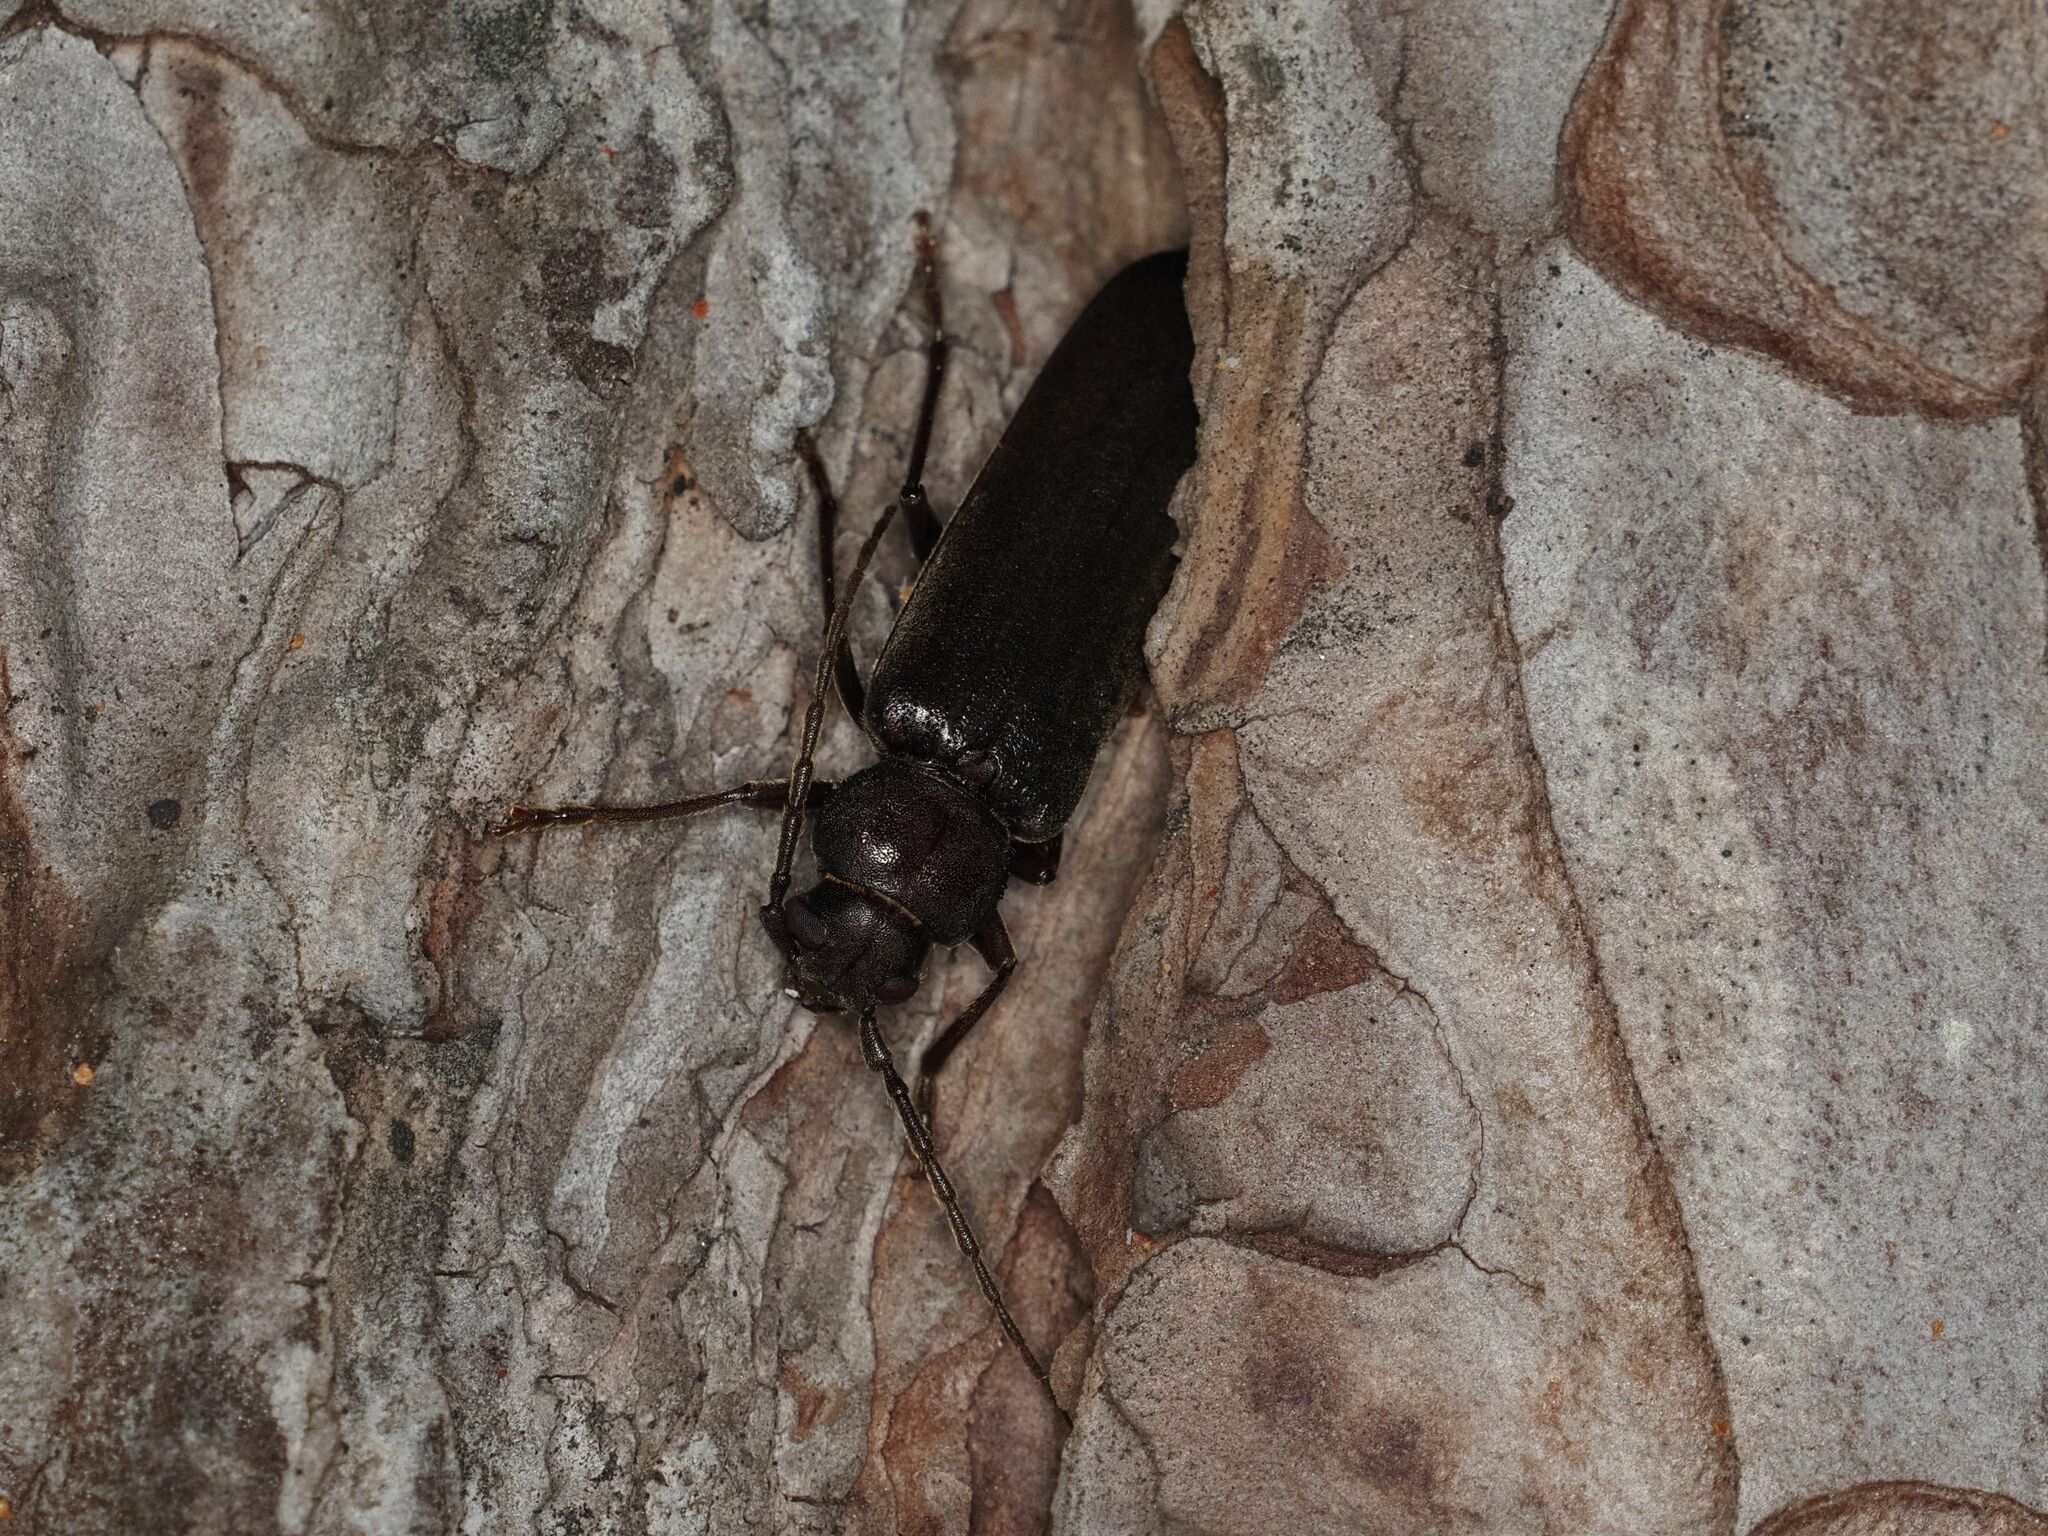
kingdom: Animalia
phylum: Arthropoda
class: Insecta
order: Coleoptera
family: Cerambycidae
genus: Arhopalus
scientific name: Arhopalus rusticus
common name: Rust pine borer
